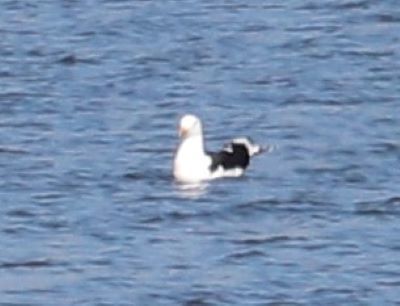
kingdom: Animalia
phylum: Chordata
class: Aves
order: Charadriiformes
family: Laridae
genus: Larus
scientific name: Larus dominicanus
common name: Kelp gull
